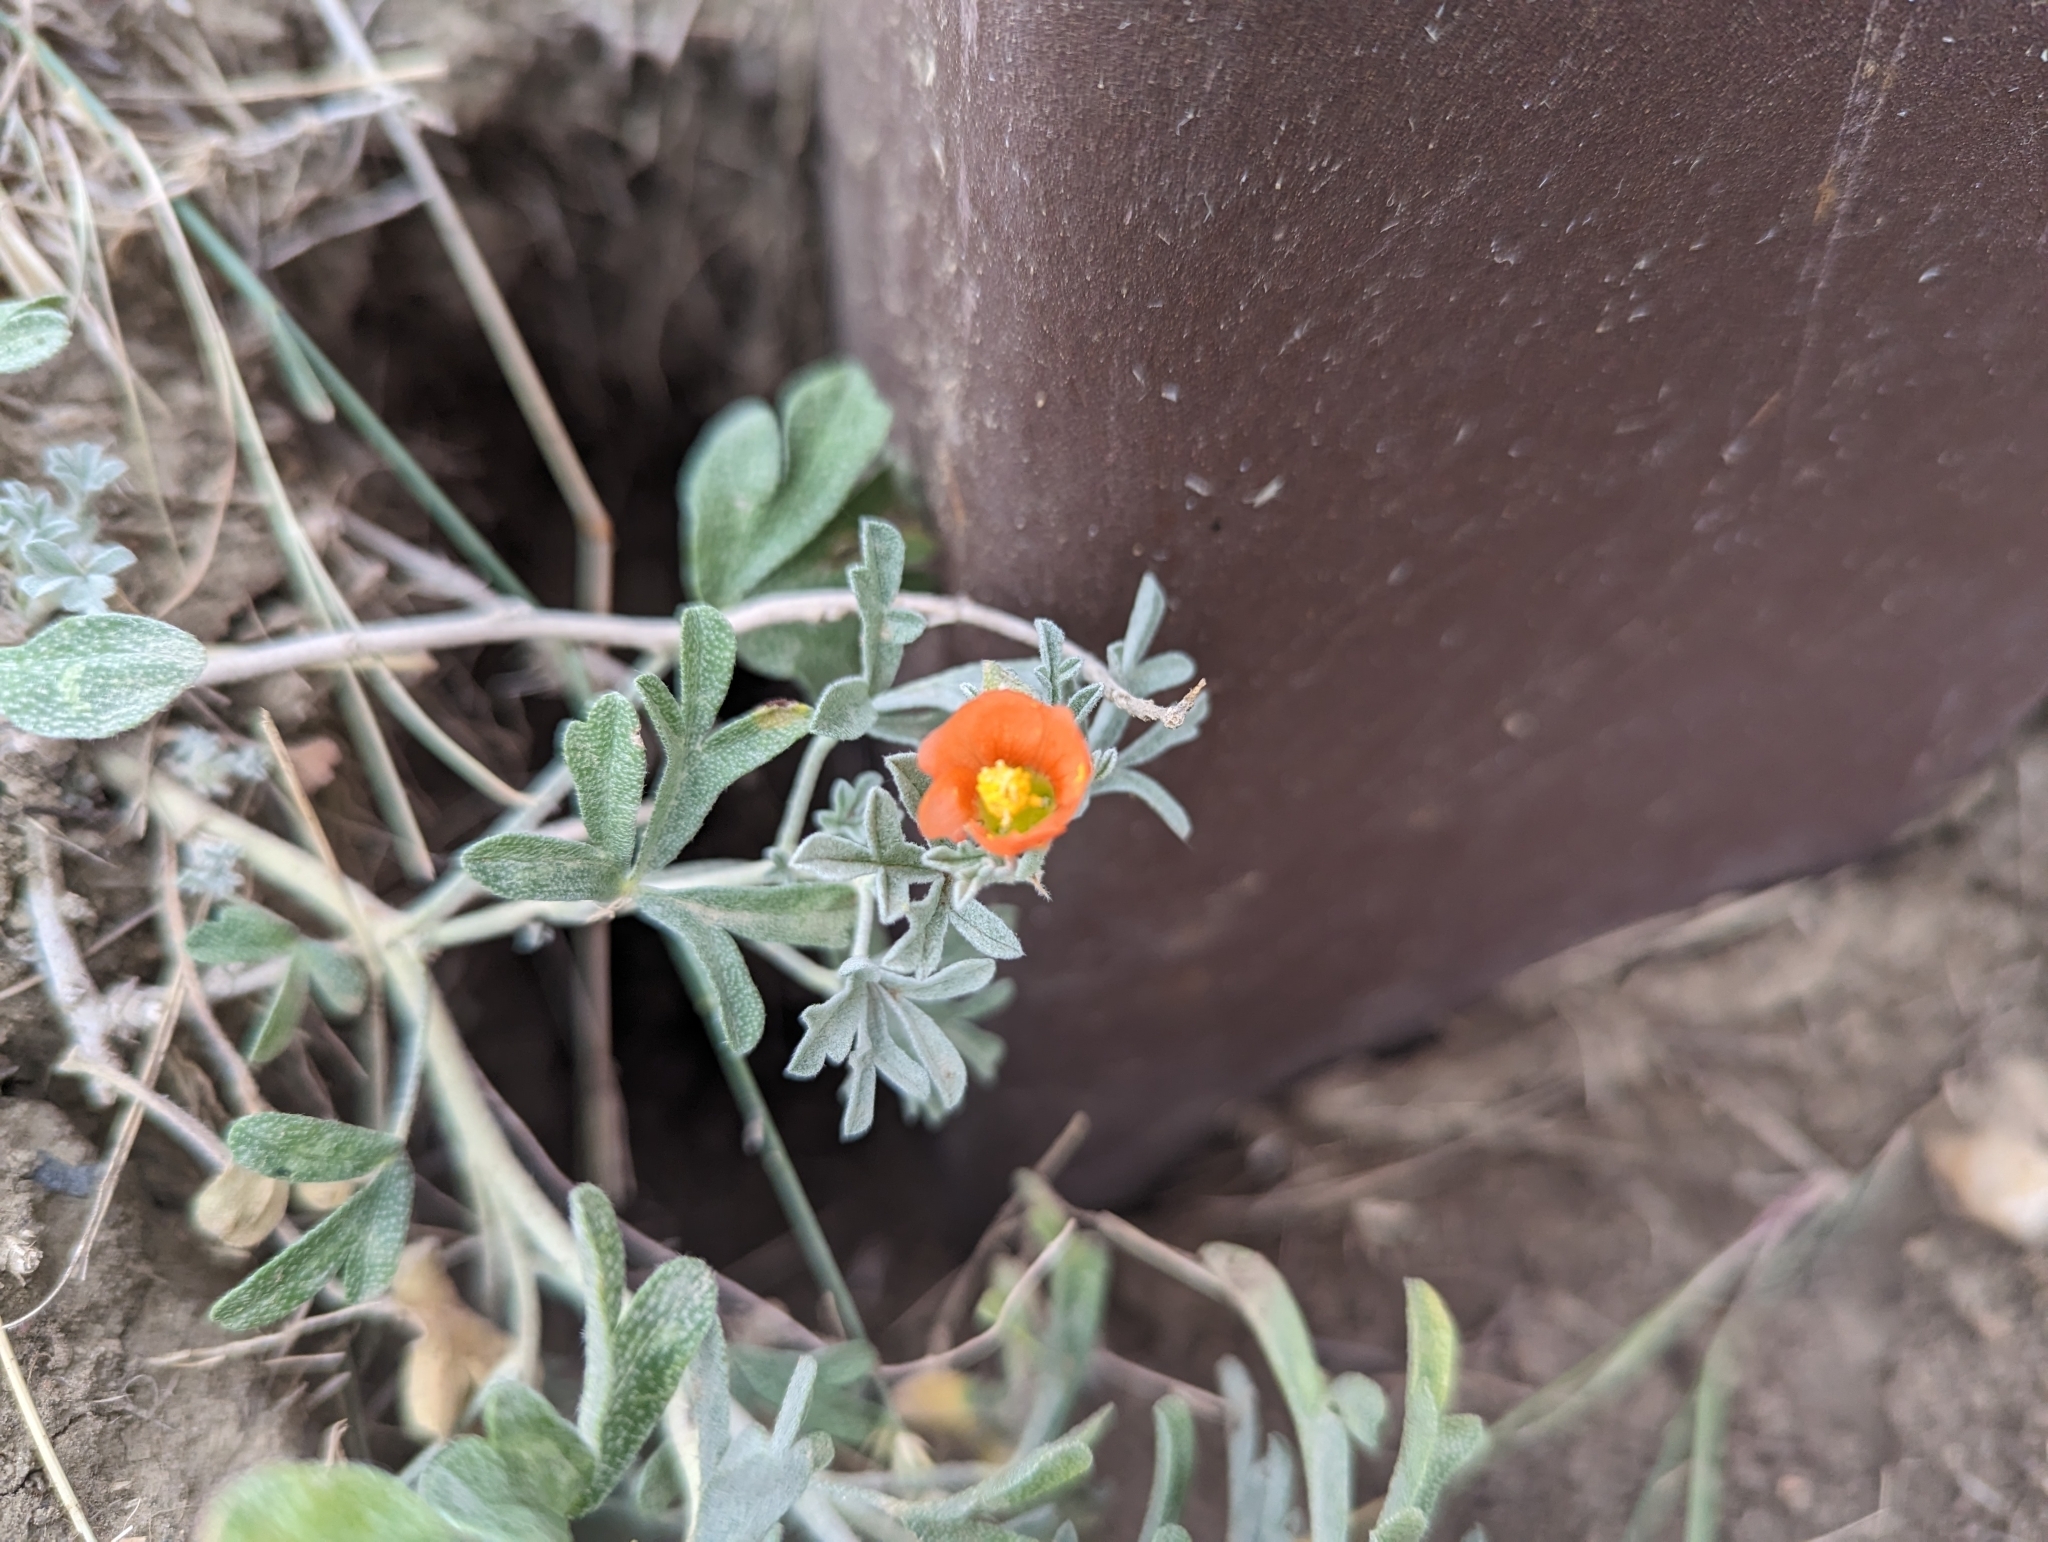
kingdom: Plantae
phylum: Tracheophyta
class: Magnoliopsida
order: Malvales
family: Malvaceae
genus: Sphaeralcea
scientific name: Sphaeralcea coccinea
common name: Moss-rose
